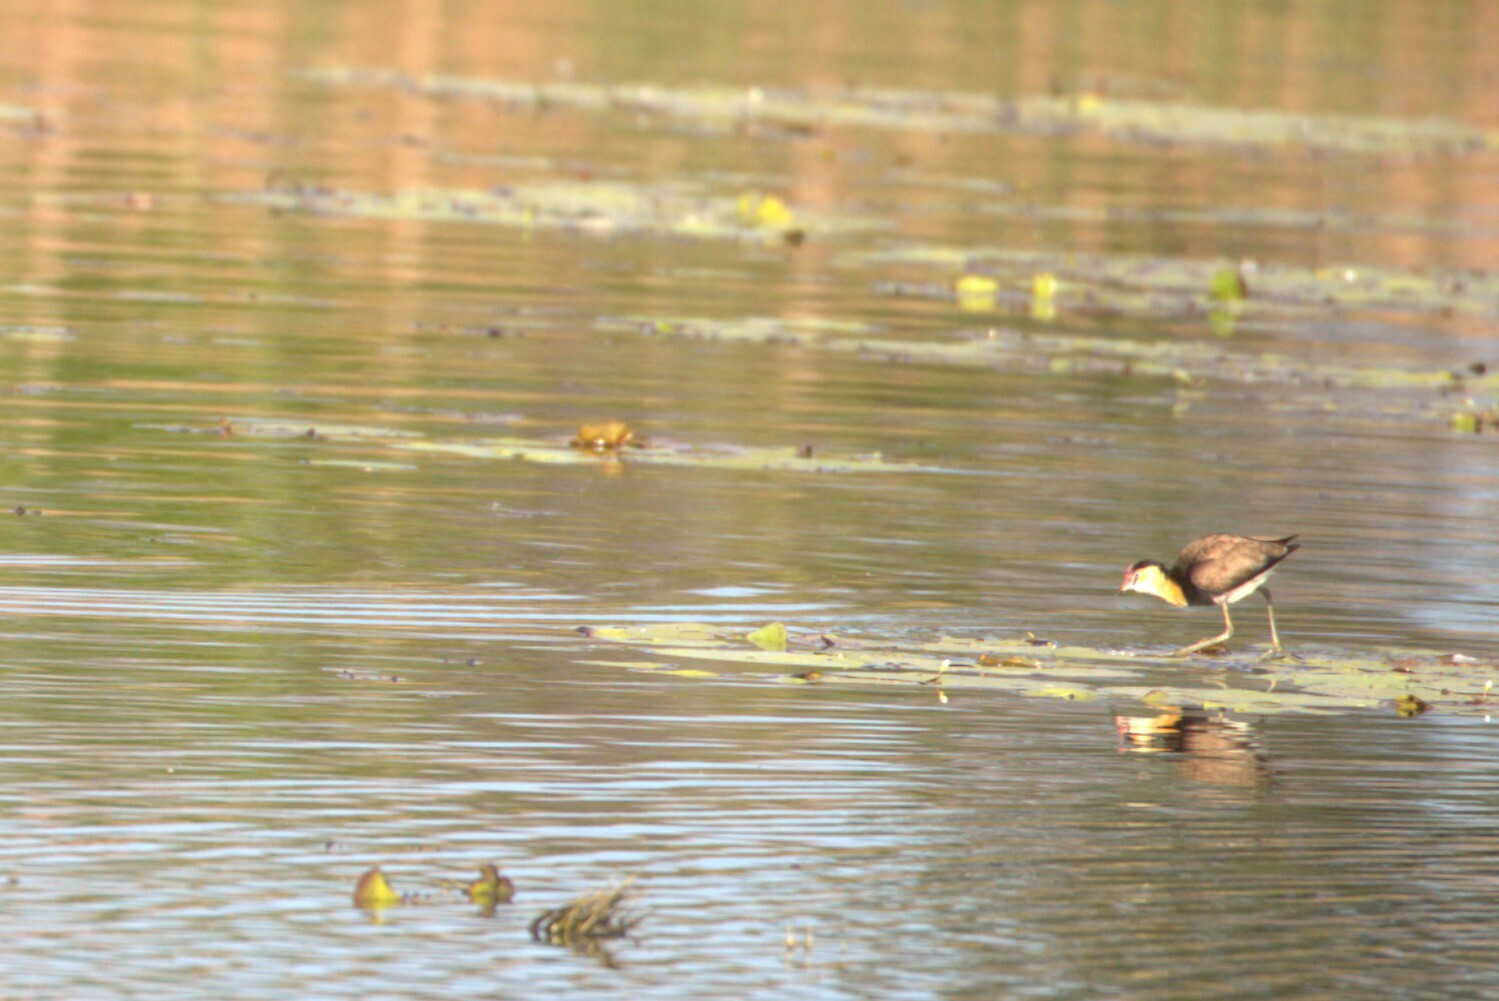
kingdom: Animalia
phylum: Chordata
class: Aves
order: Charadriiformes
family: Jacanidae
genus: Irediparra
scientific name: Irediparra gallinacea
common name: Comb-crested jacana
